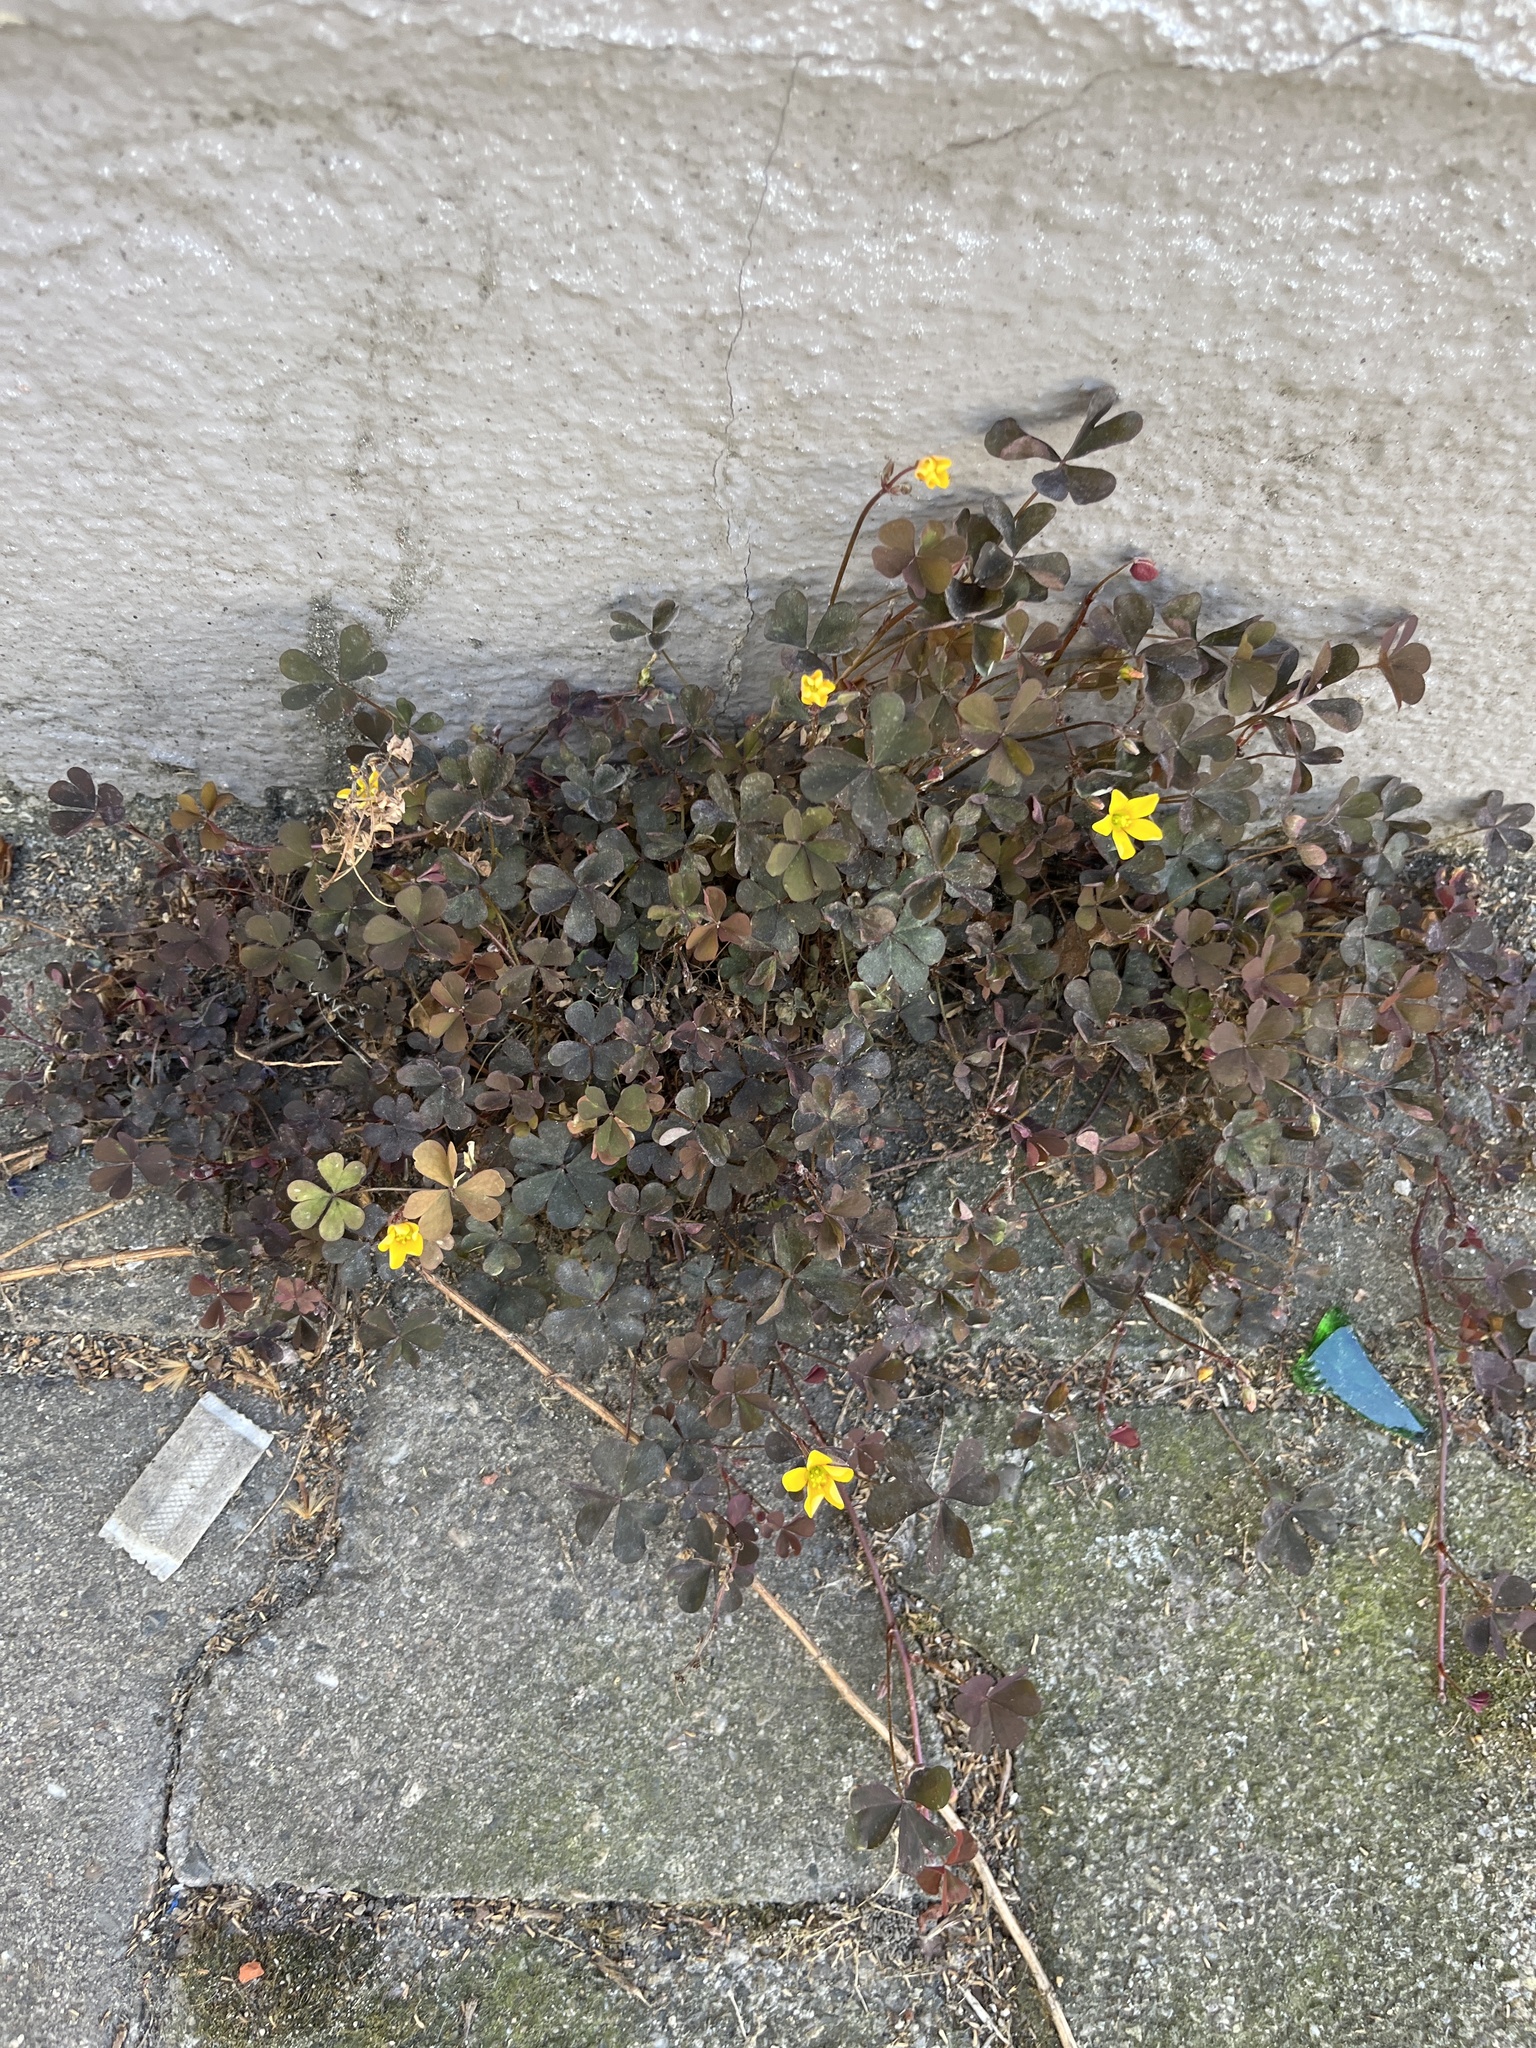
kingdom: Plantae
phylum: Tracheophyta
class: Magnoliopsida
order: Oxalidales
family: Oxalidaceae
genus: Oxalis
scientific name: Oxalis corniculata
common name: Procumbent yellow-sorrel
